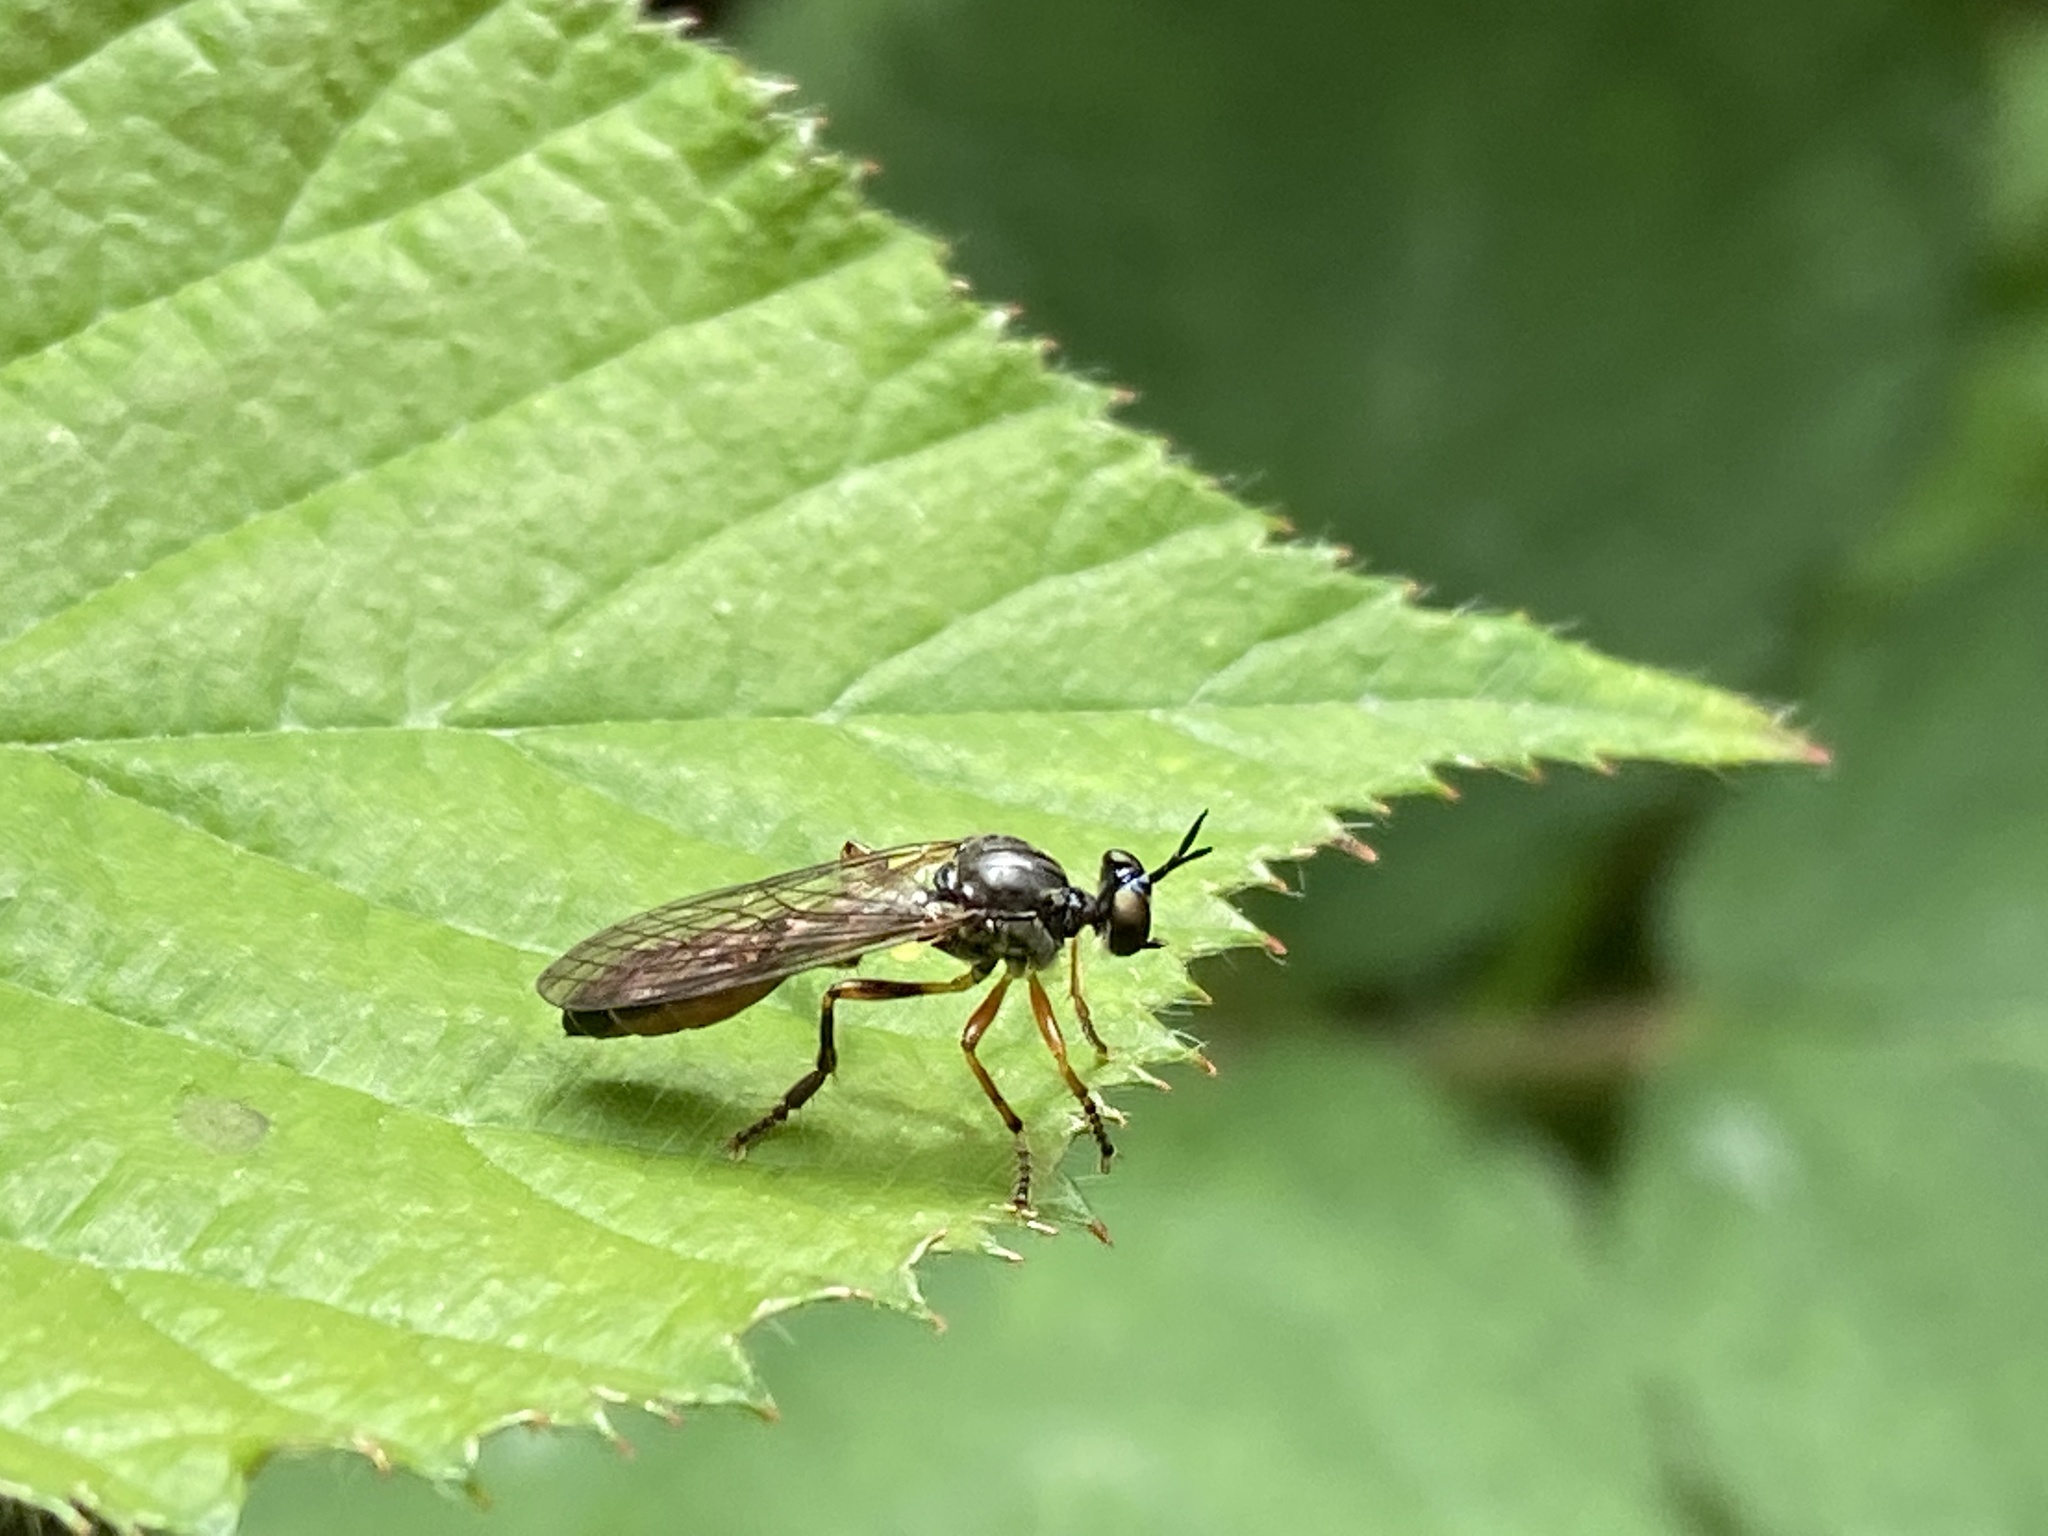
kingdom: Animalia
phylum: Arthropoda
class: Insecta
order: Diptera
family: Asilidae
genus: Dioctria
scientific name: Dioctria hyalipennis
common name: Stripe-legged robberfly
